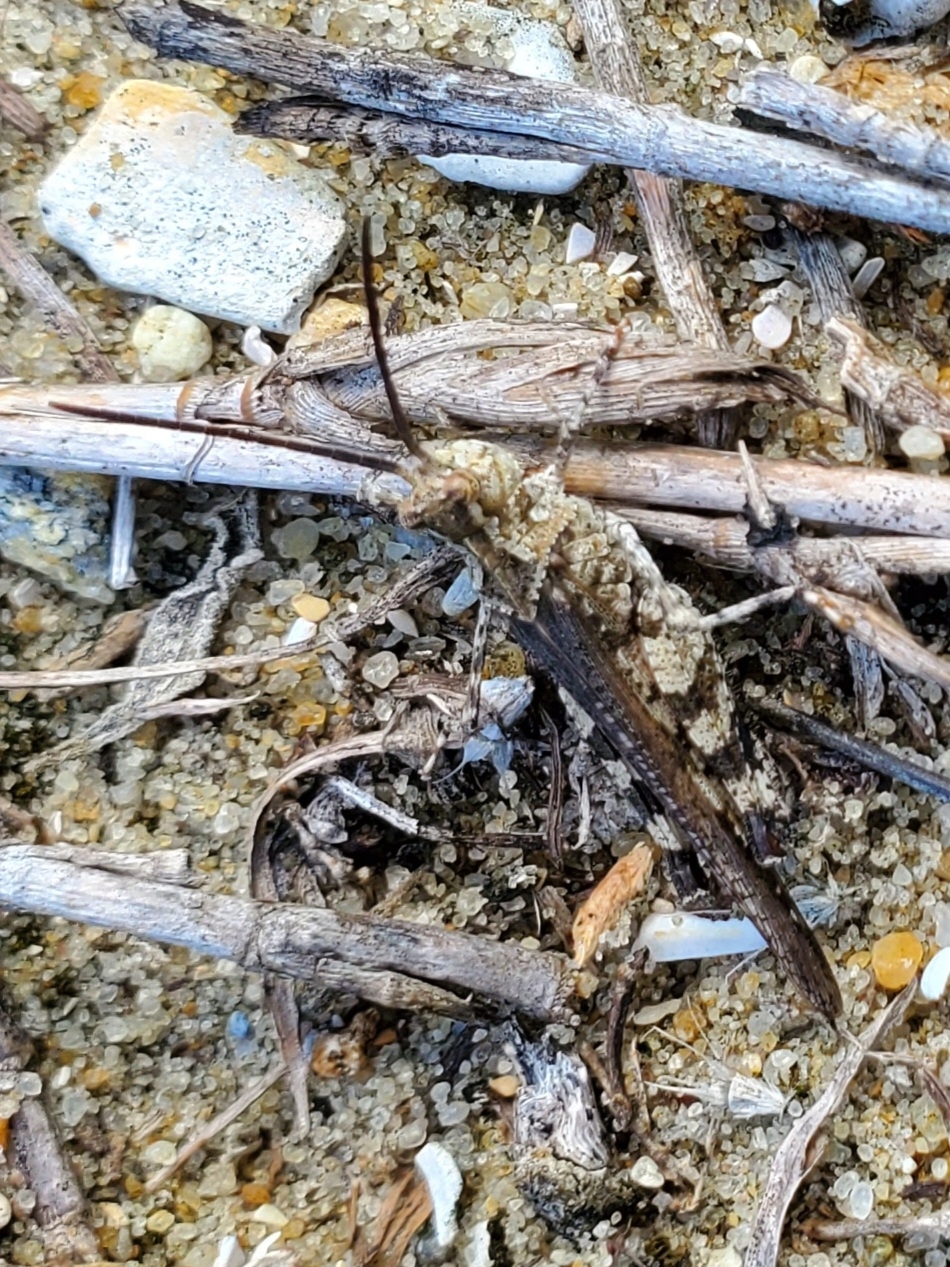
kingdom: Animalia
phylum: Arthropoda
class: Insecta
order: Orthoptera
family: Acrididae
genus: Psinidia
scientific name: Psinidia fenestralis
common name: Long-horned locust
